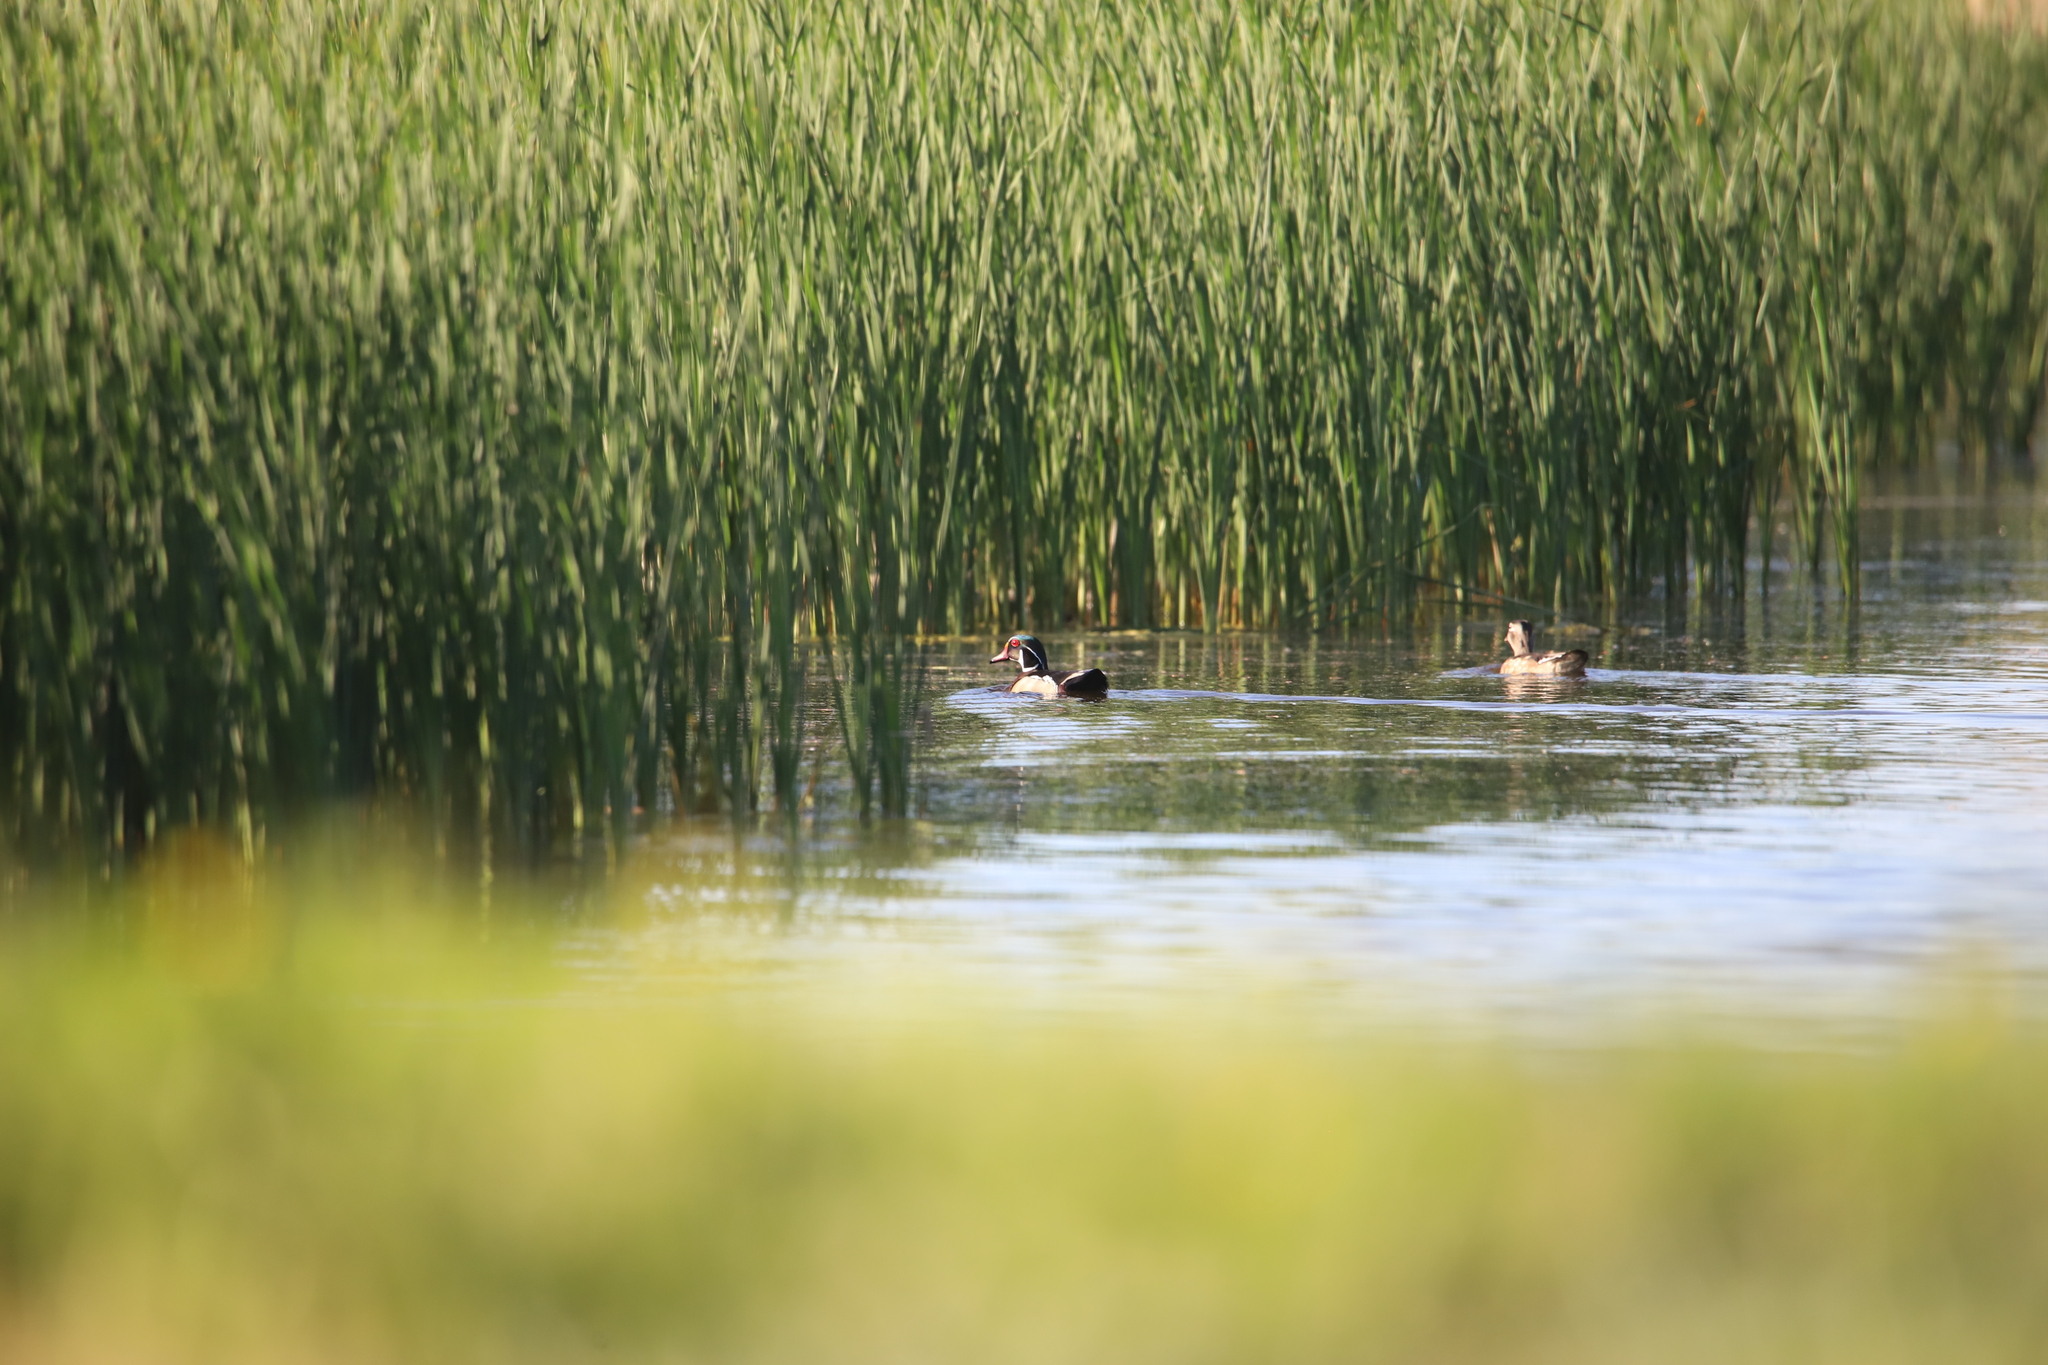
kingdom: Animalia
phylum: Chordata
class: Aves
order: Anseriformes
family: Anatidae
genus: Aix
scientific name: Aix sponsa
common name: Wood duck
